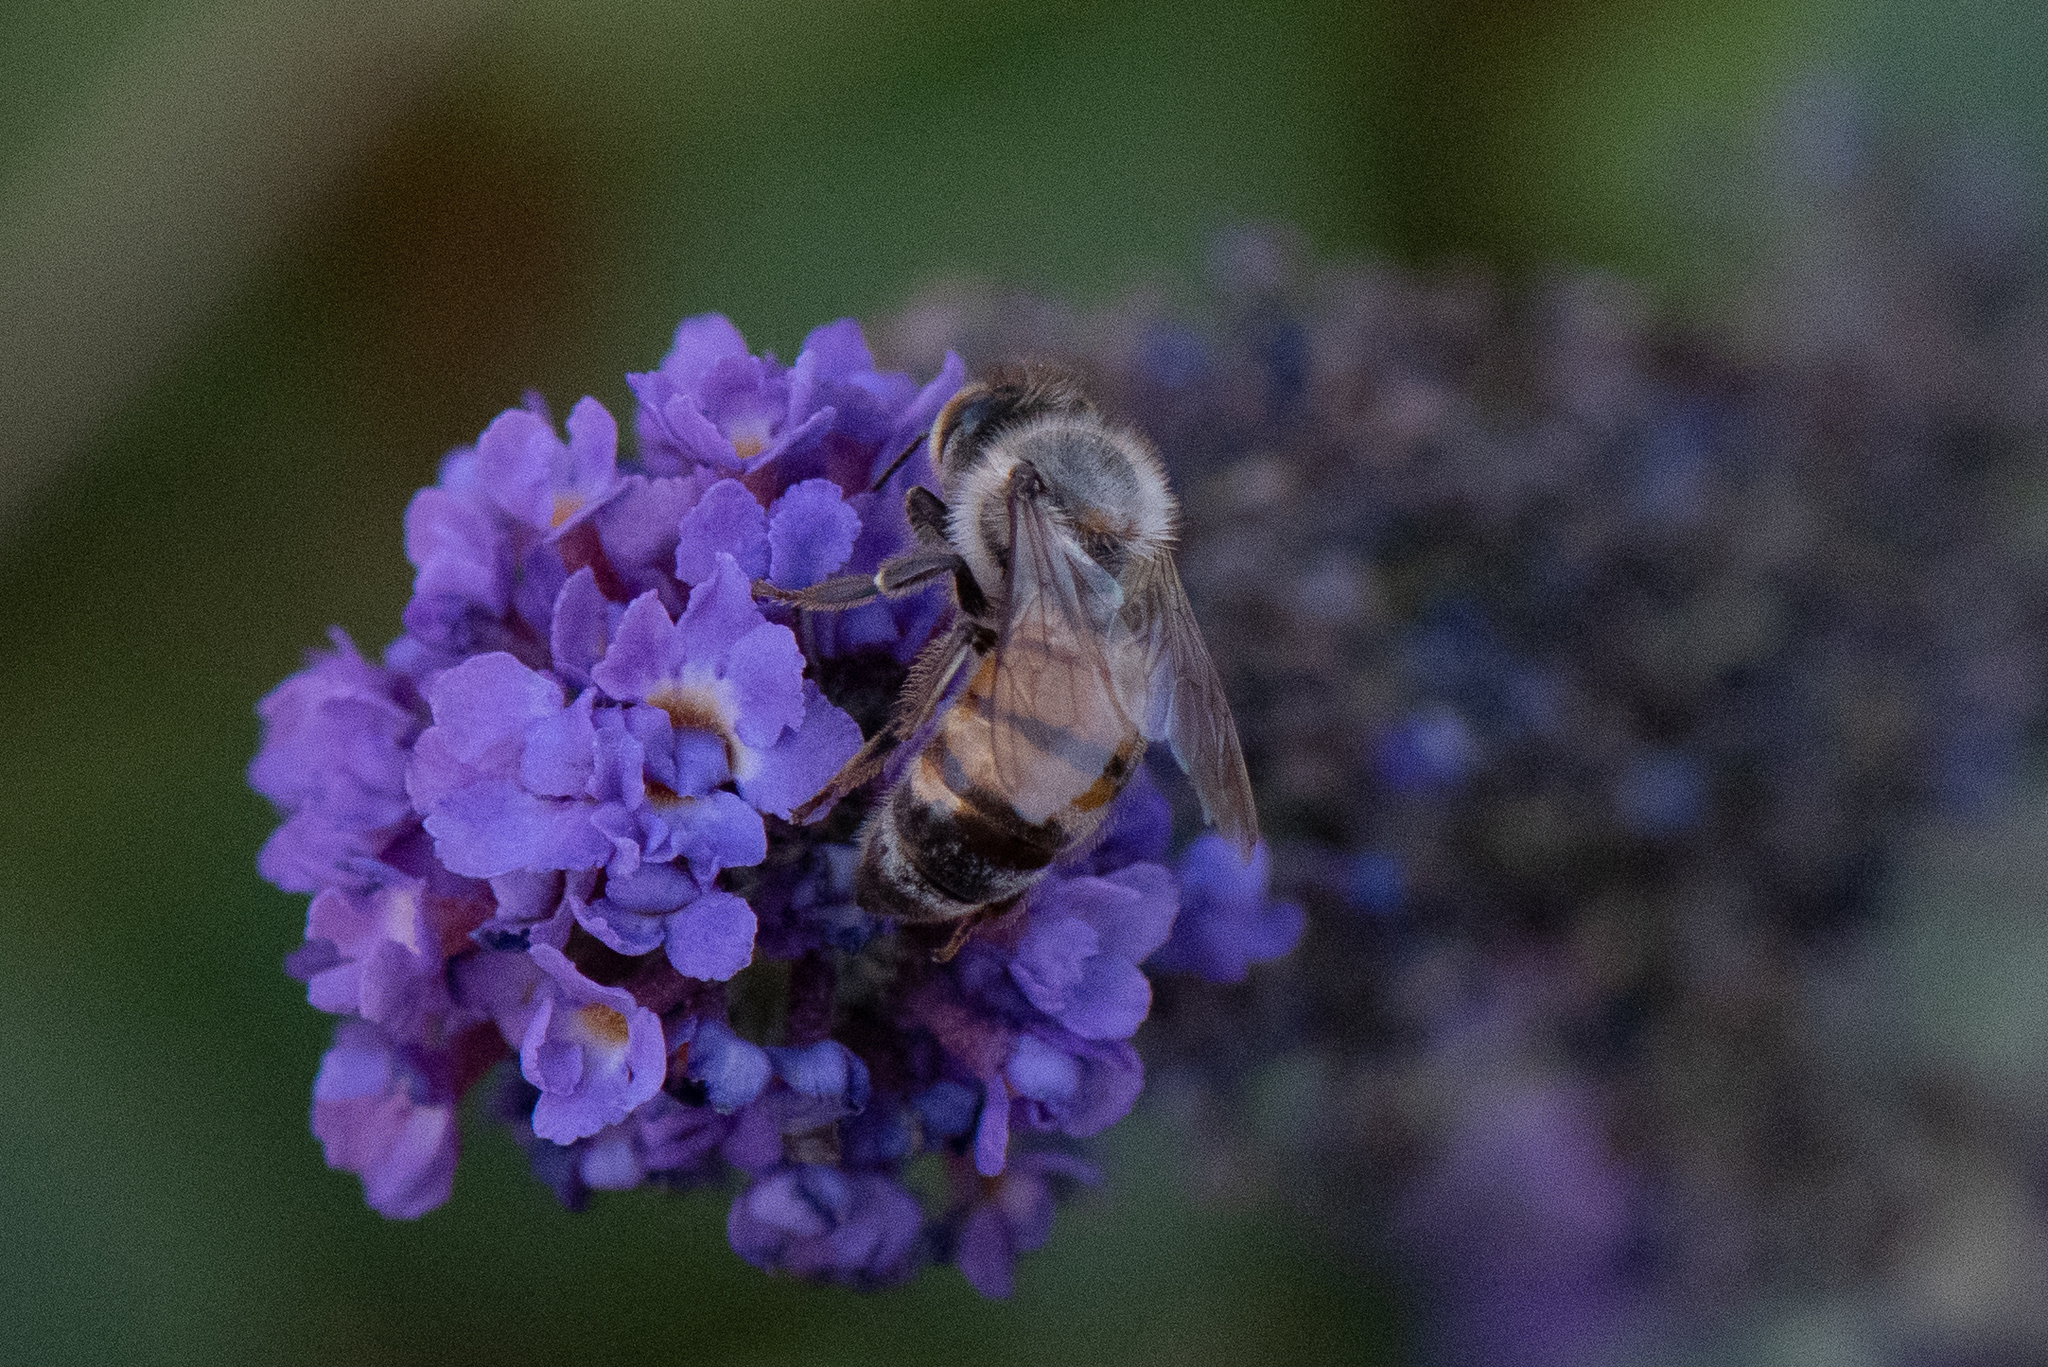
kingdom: Animalia
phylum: Arthropoda
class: Insecta
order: Hymenoptera
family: Apidae
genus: Apis
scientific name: Apis mellifera
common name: Honey bee
